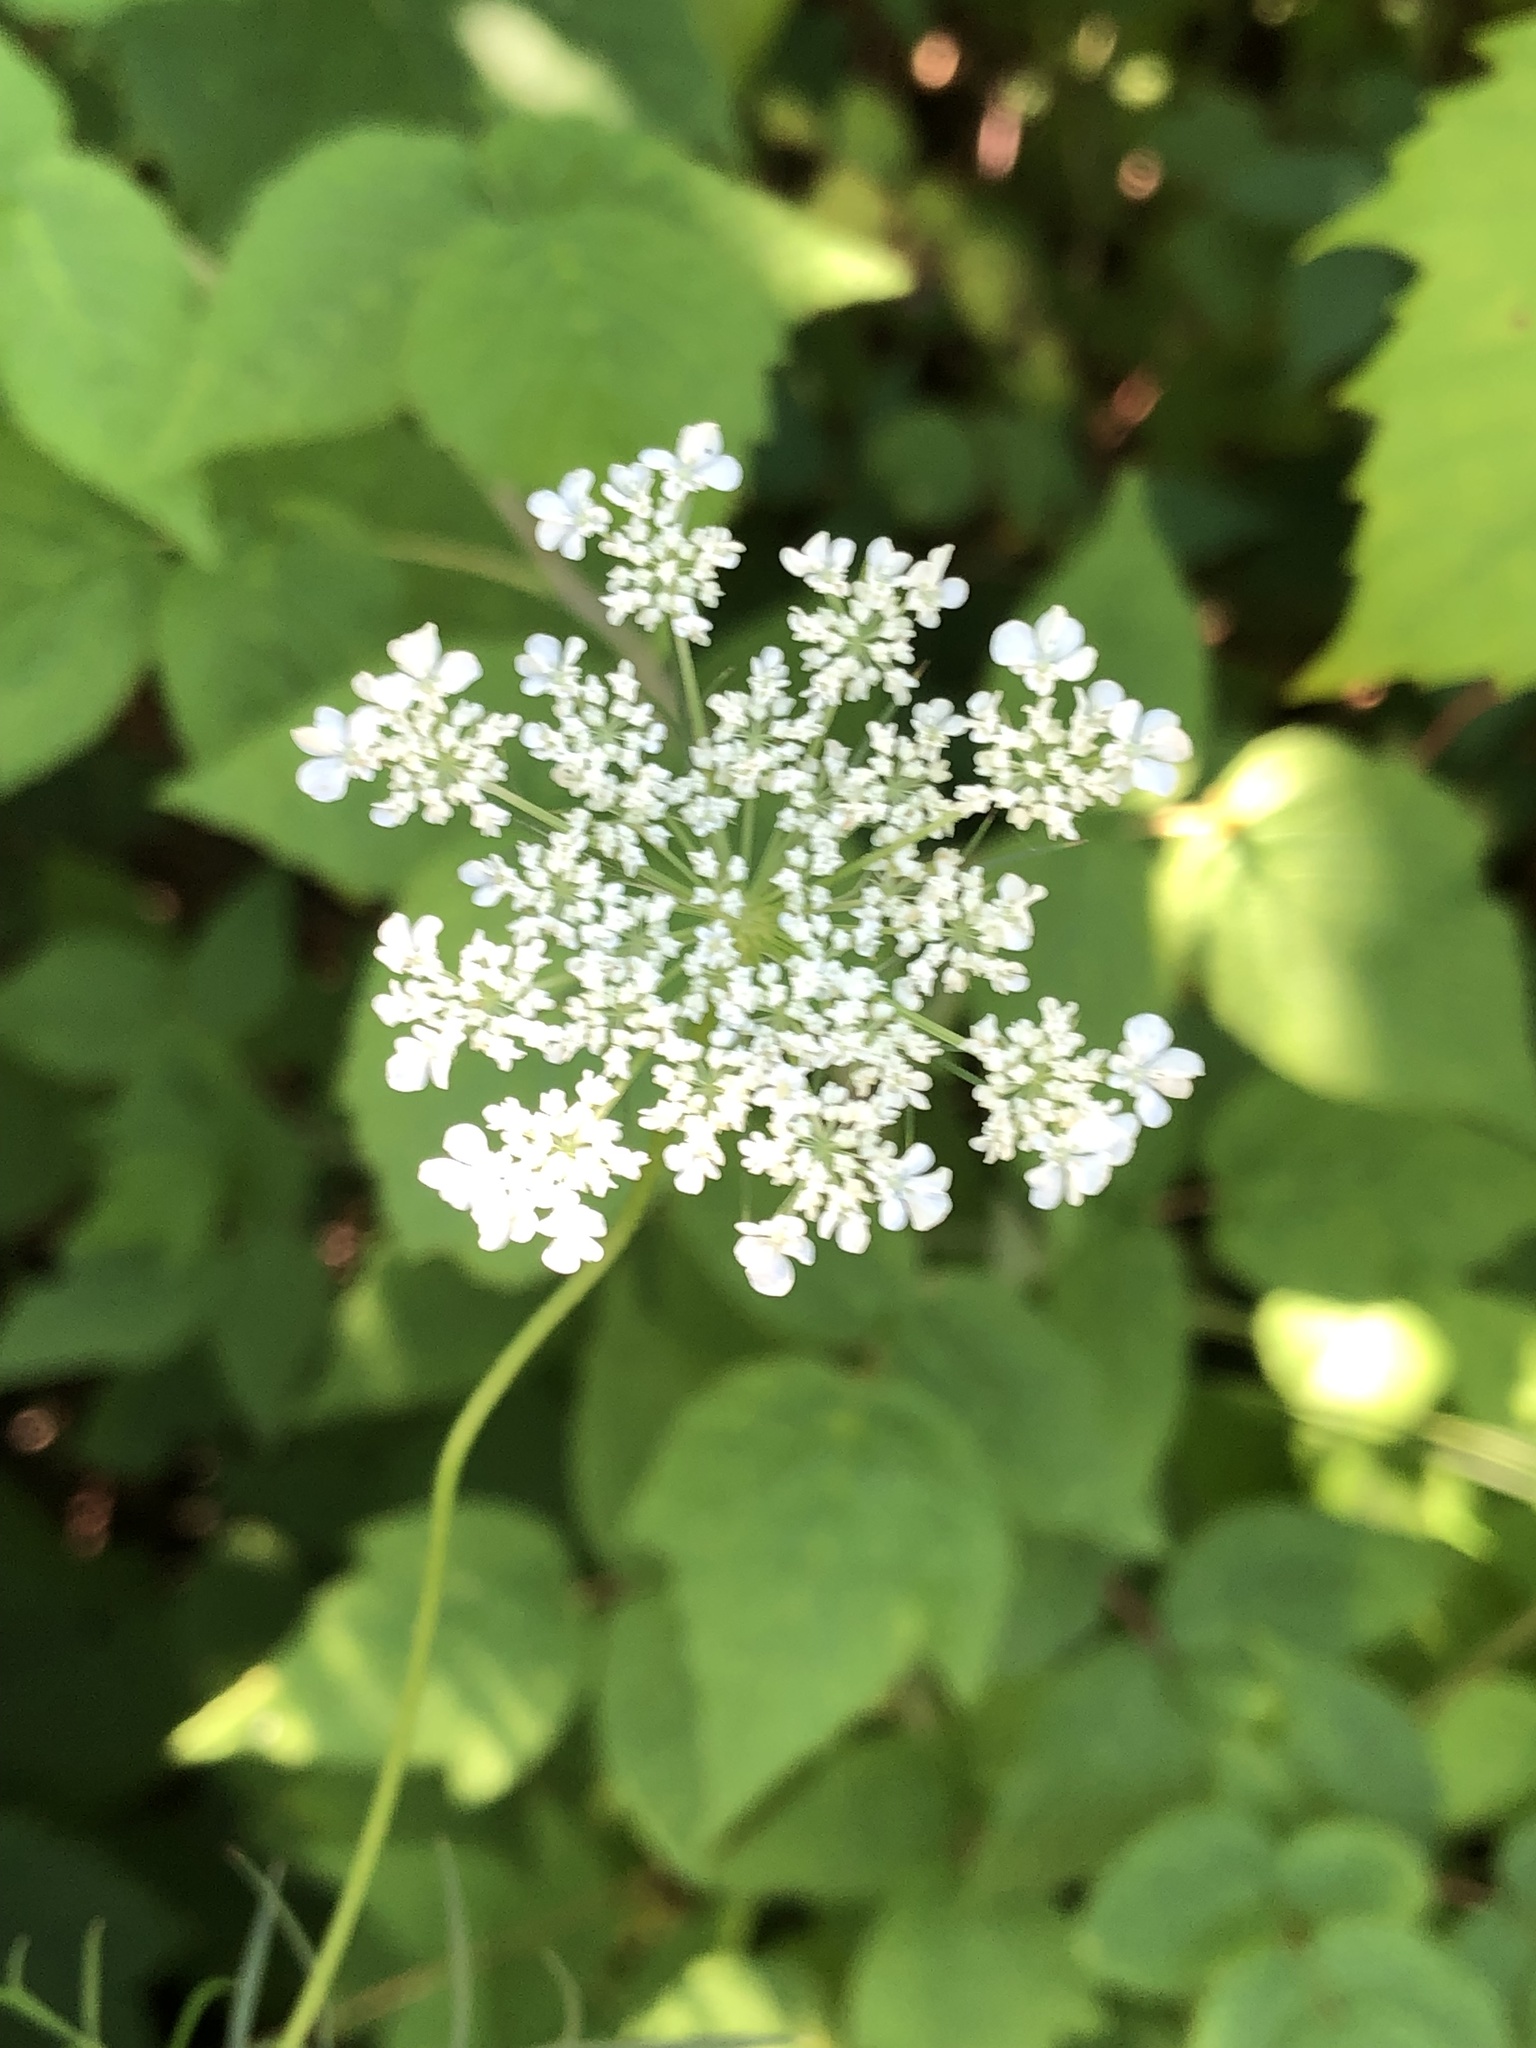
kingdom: Plantae
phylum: Tracheophyta
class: Magnoliopsida
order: Apiales
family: Apiaceae
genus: Daucus
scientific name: Daucus carota
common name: Wild carrot
